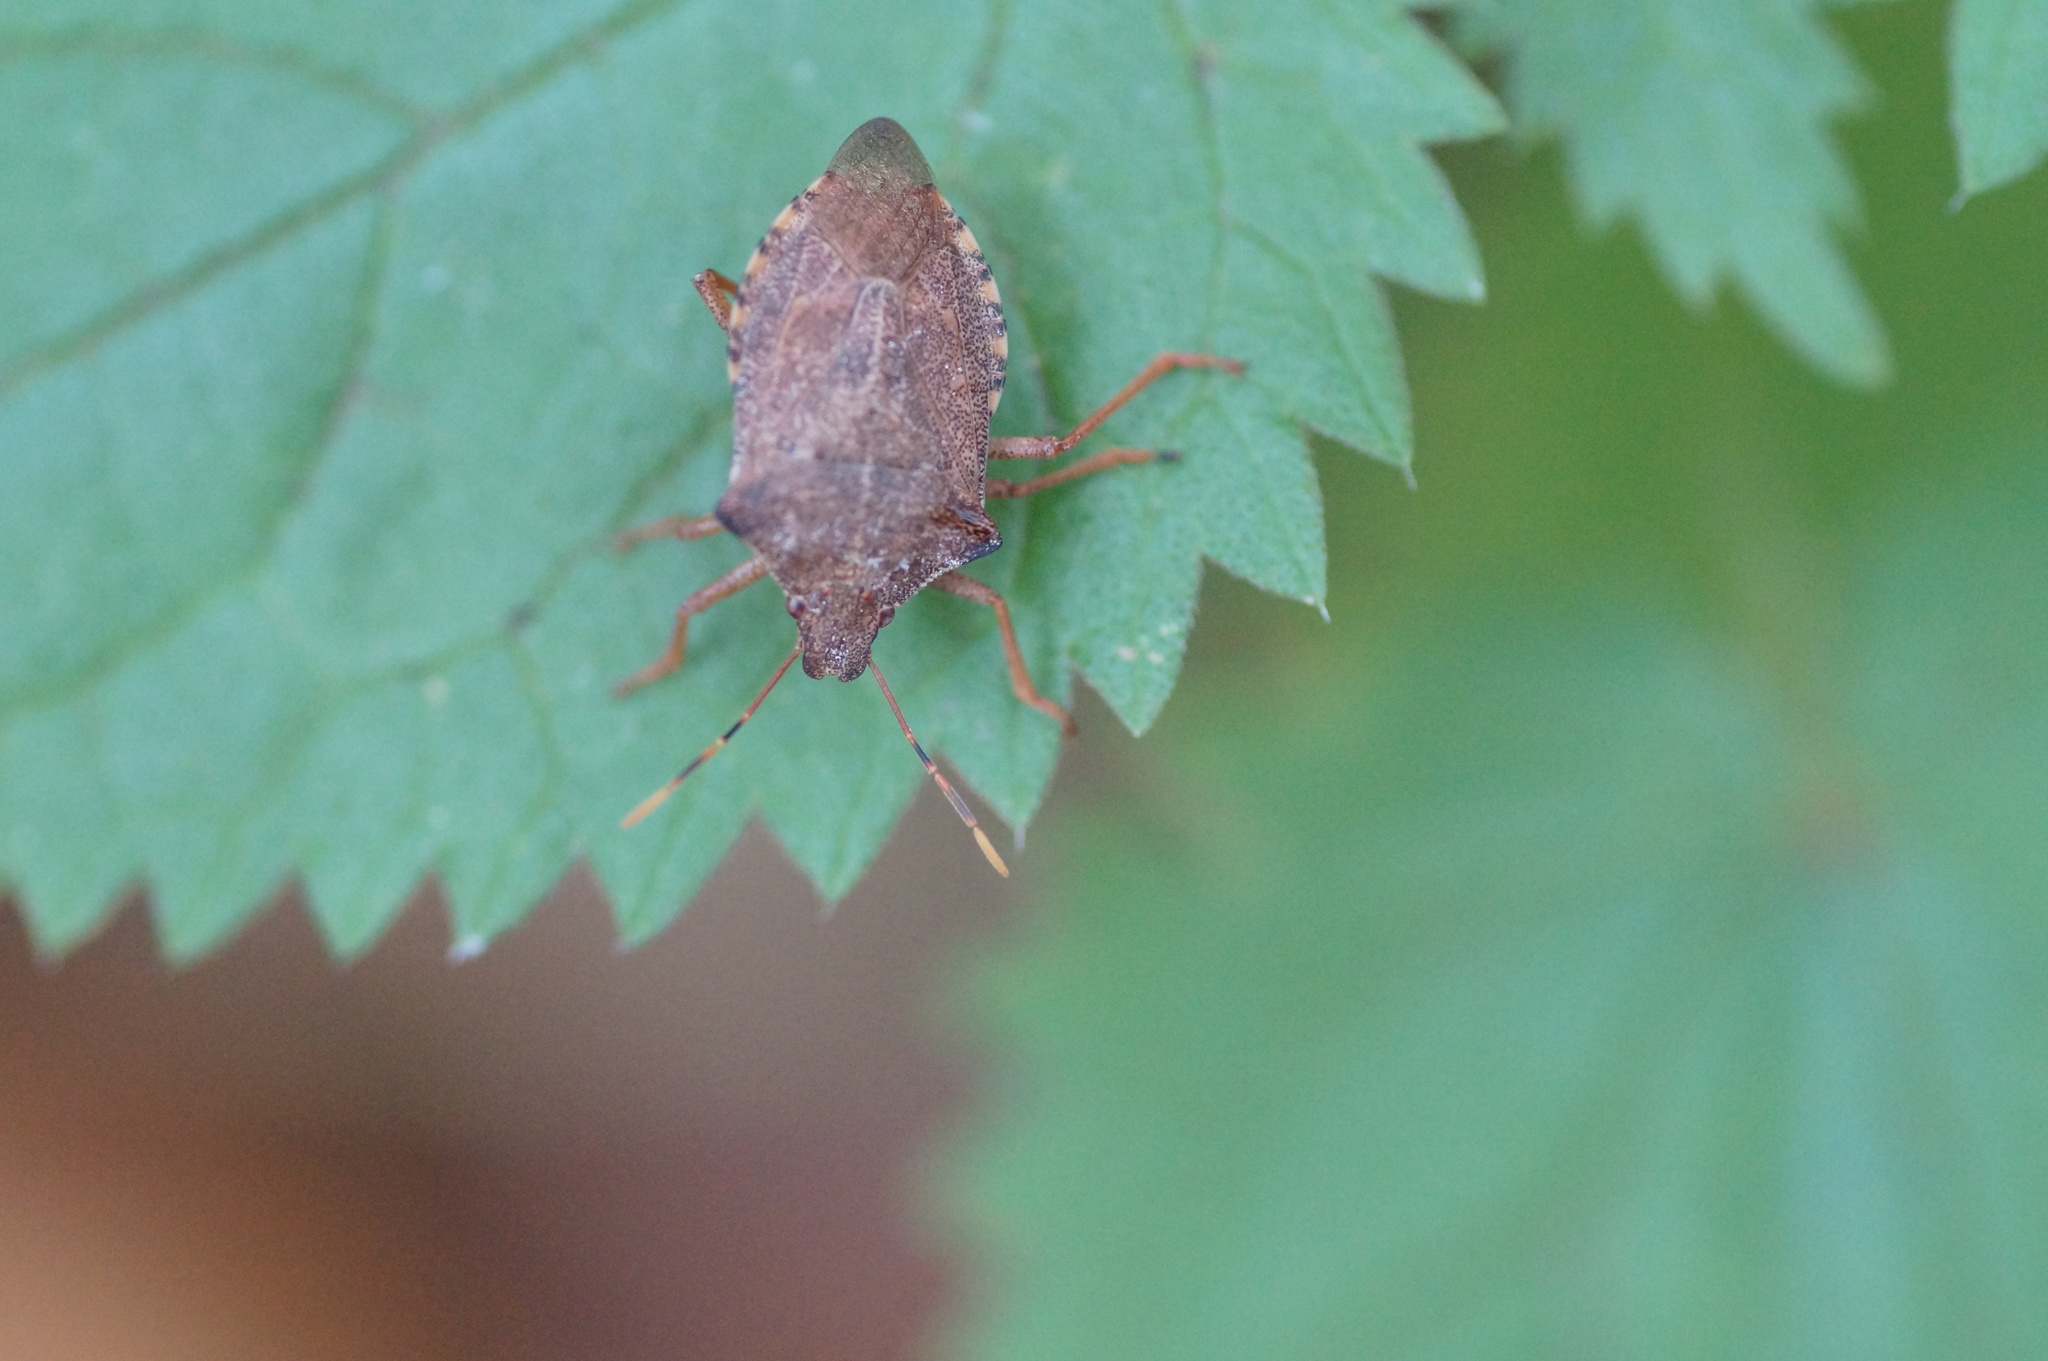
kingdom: Animalia
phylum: Arthropoda
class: Insecta
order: Hemiptera
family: Pentatomidae
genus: Arma
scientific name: Arma custos
